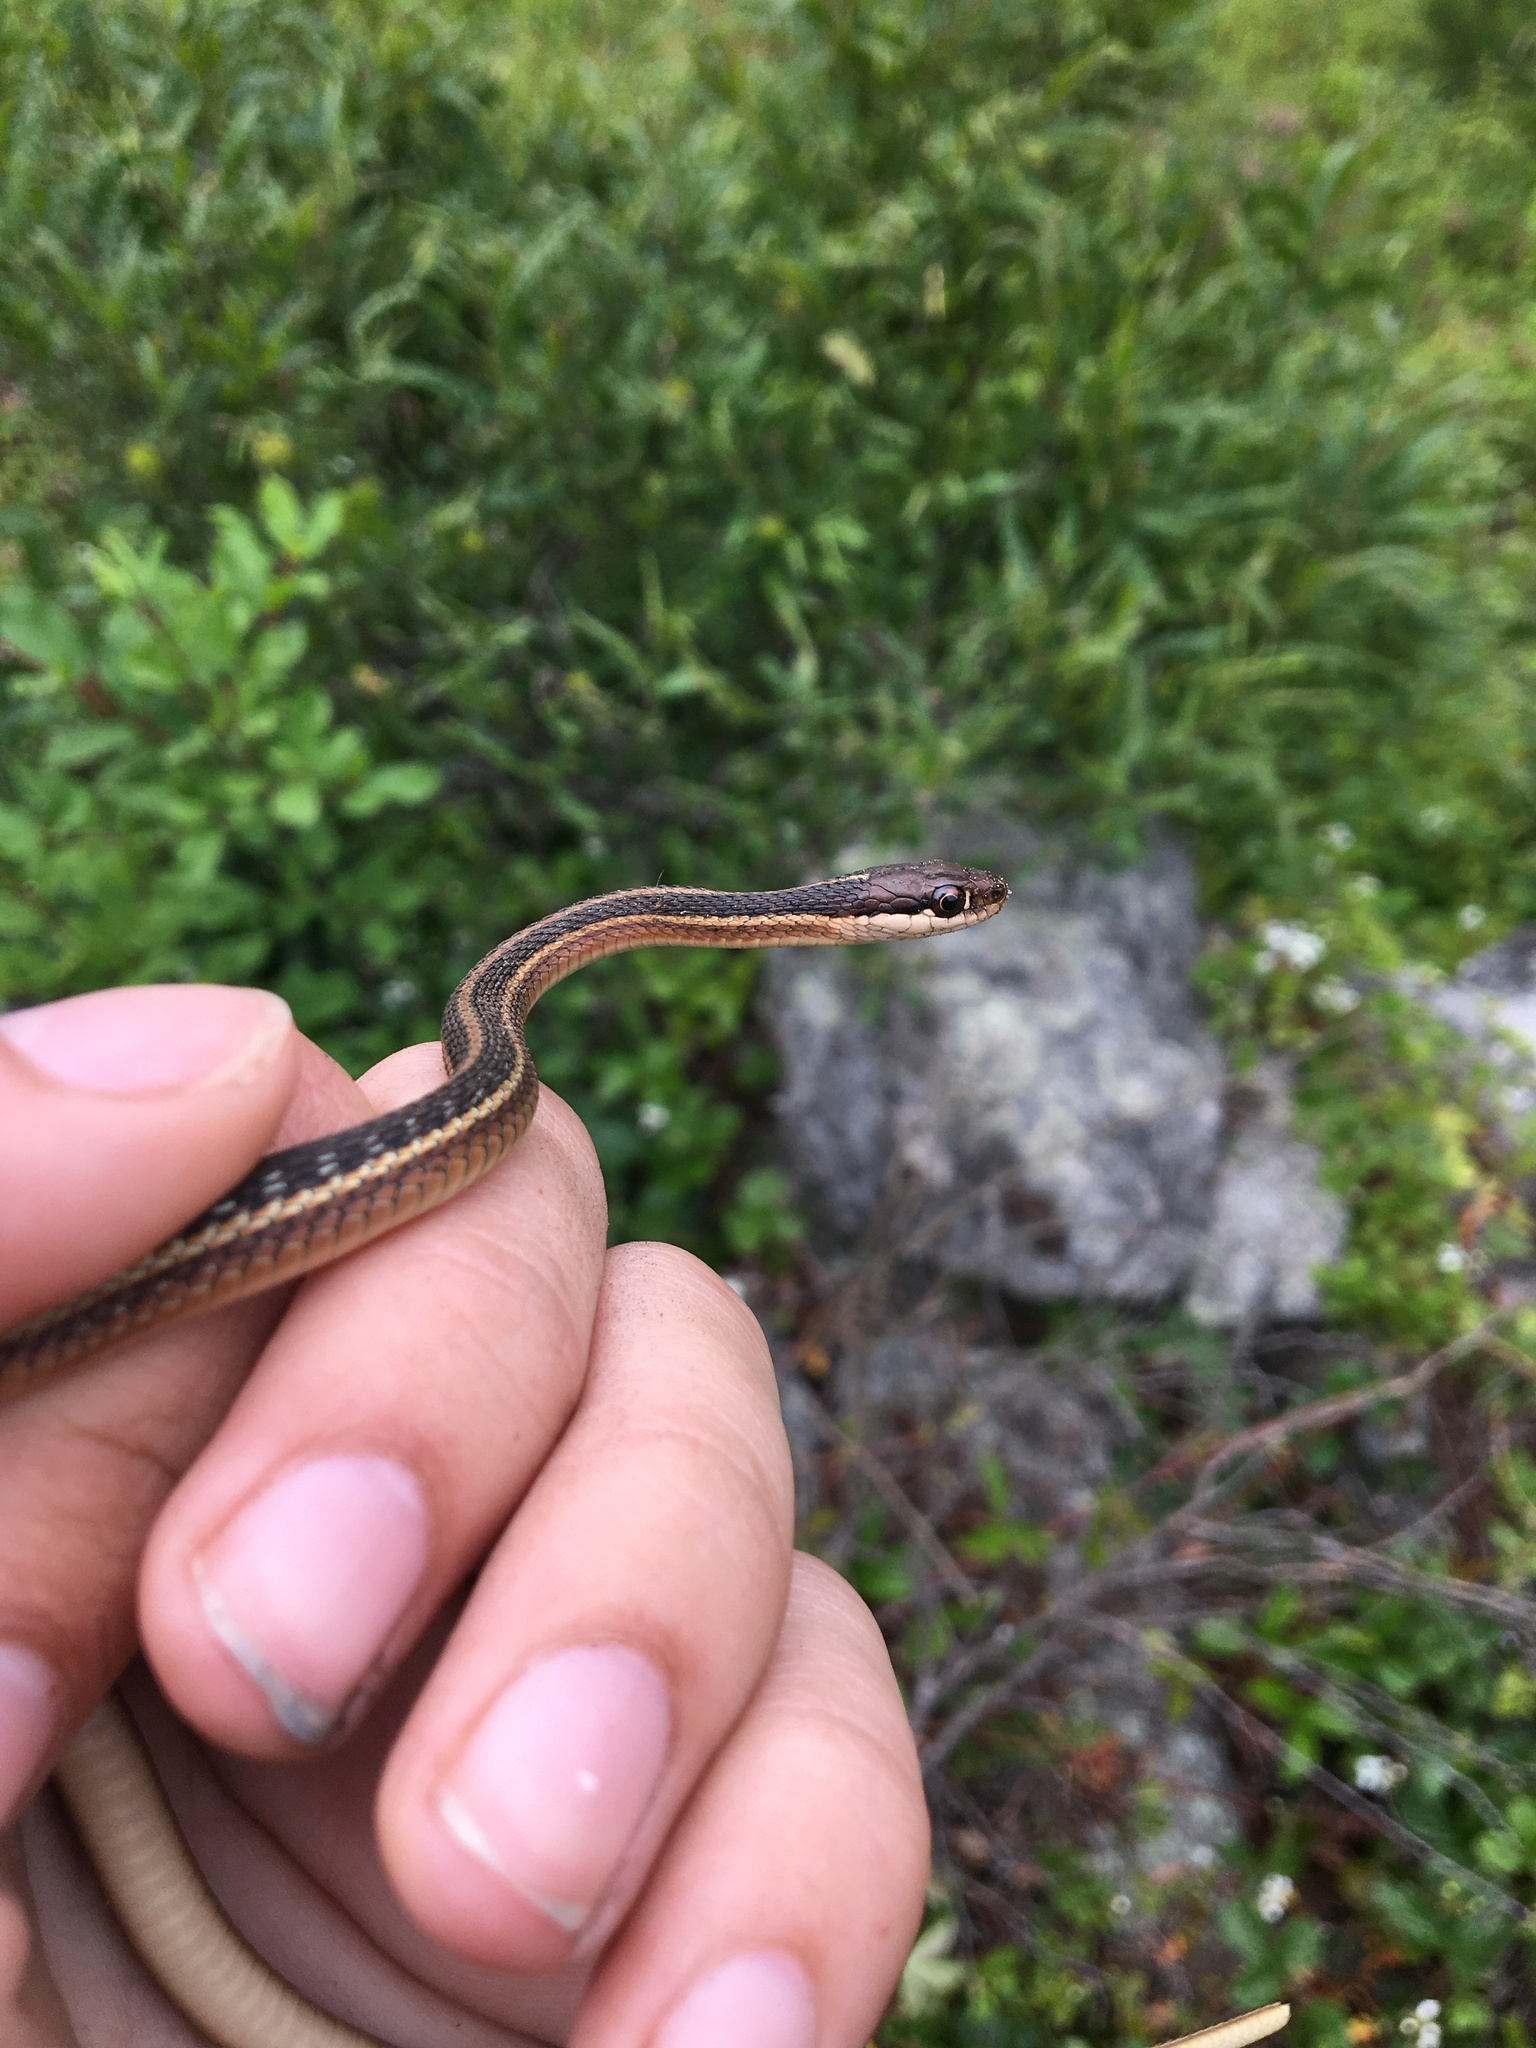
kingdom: Animalia
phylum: Chordata
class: Squamata
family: Colubridae
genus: Thamnophis
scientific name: Thamnophis saurita
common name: Eastern ribbonsnake
